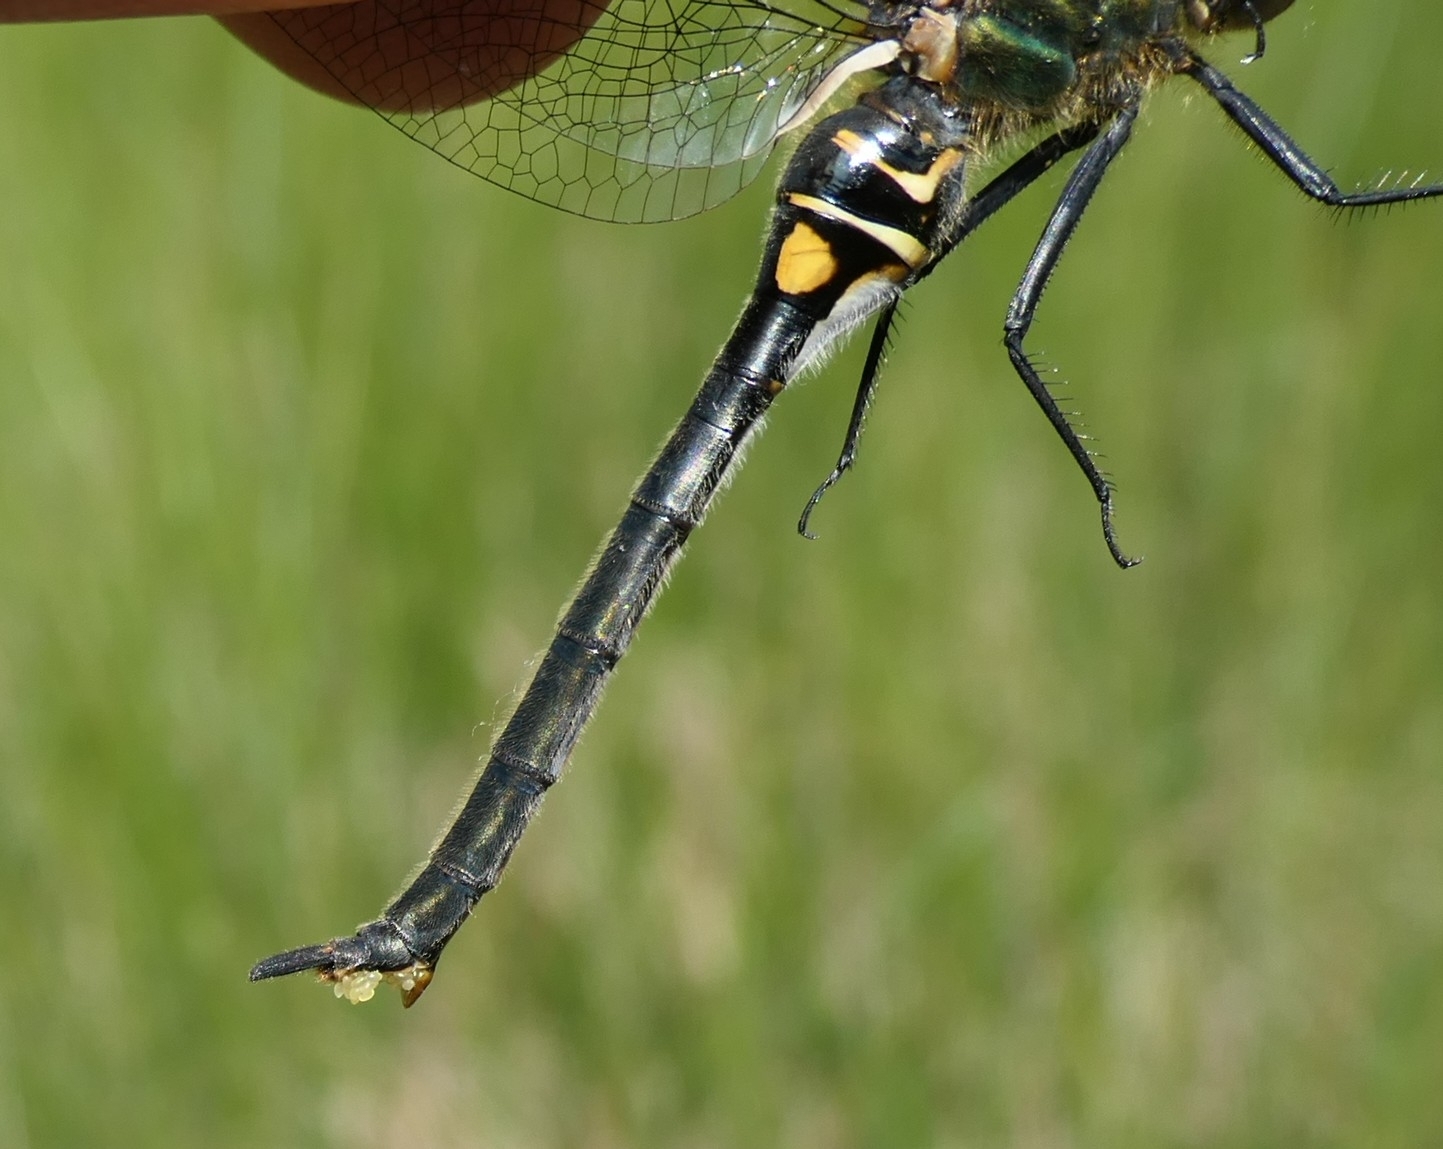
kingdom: Animalia
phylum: Arthropoda
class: Insecta
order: Odonata
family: Corduliidae
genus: Somatochlora
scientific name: Somatochlora arctica
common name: Northern emerald
